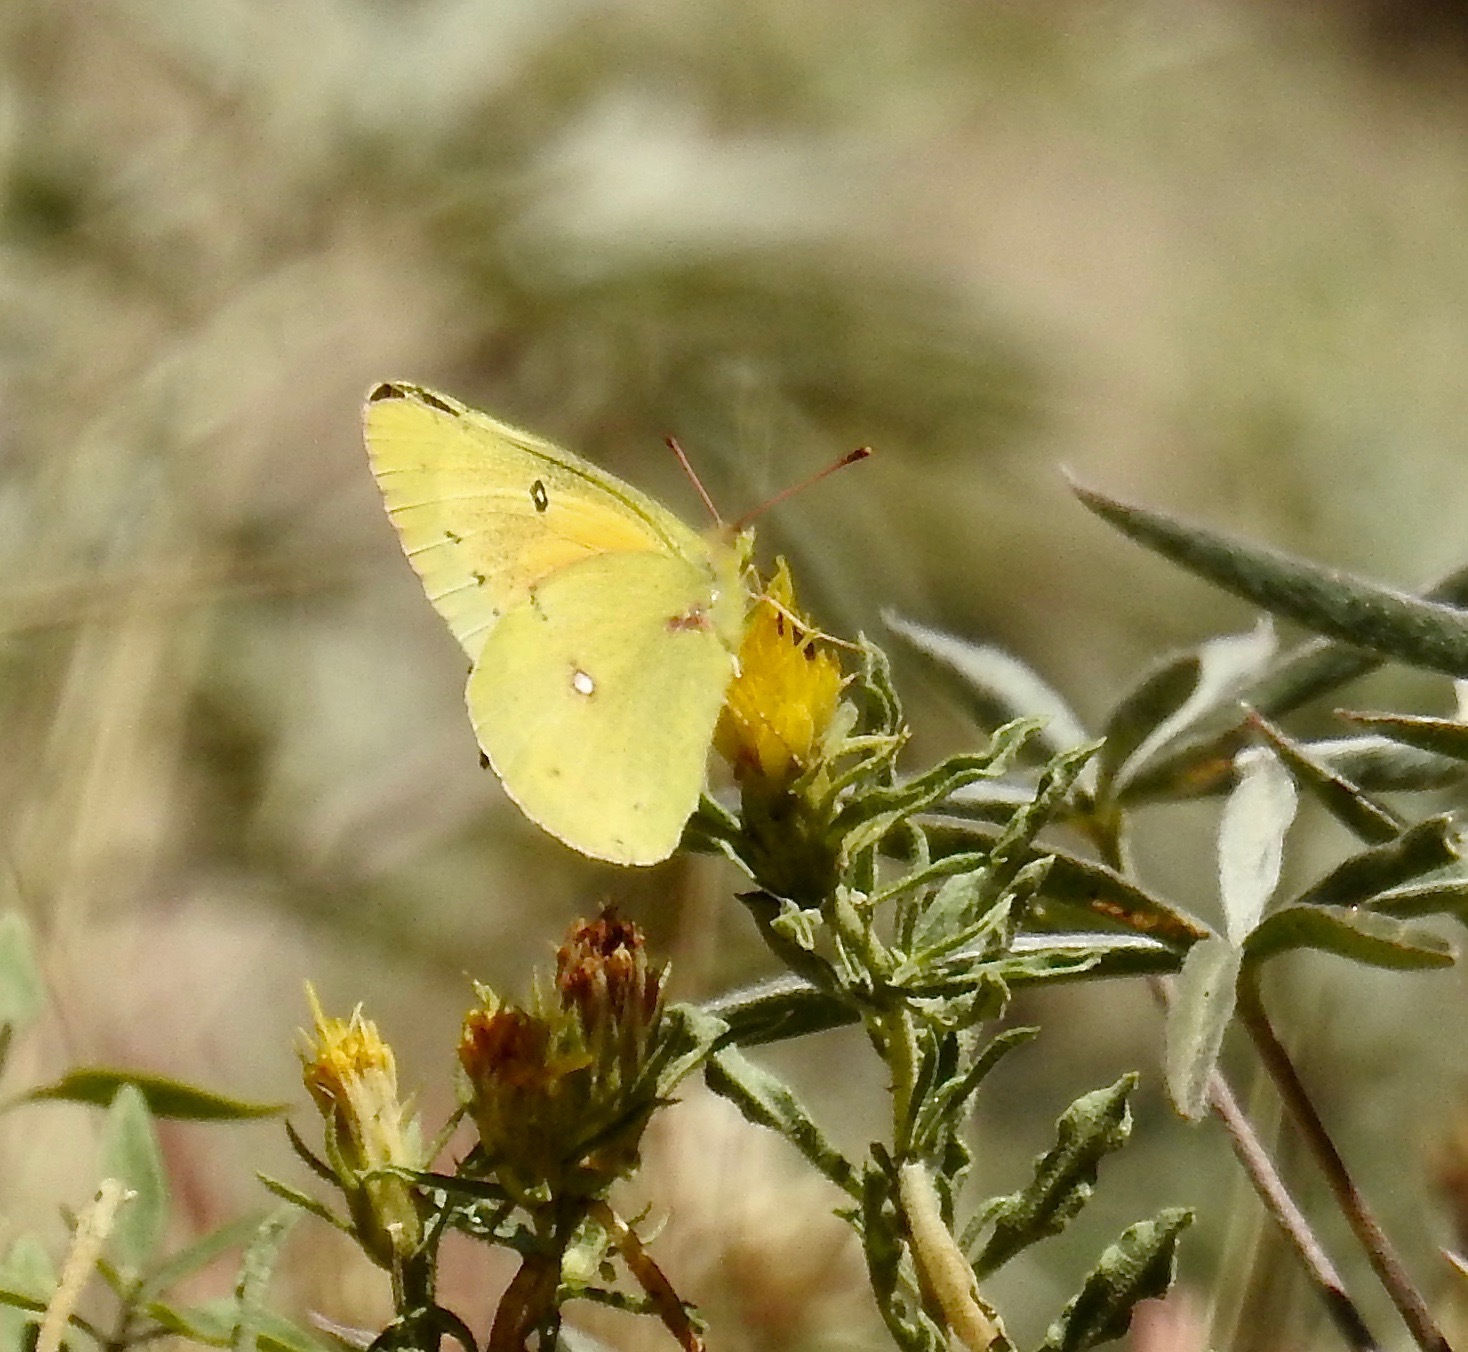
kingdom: Animalia
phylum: Arthropoda
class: Insecta
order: Lepidoptera
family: Pieridae
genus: Colias
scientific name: Colias eurytheme
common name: Alfalfa butterfly
